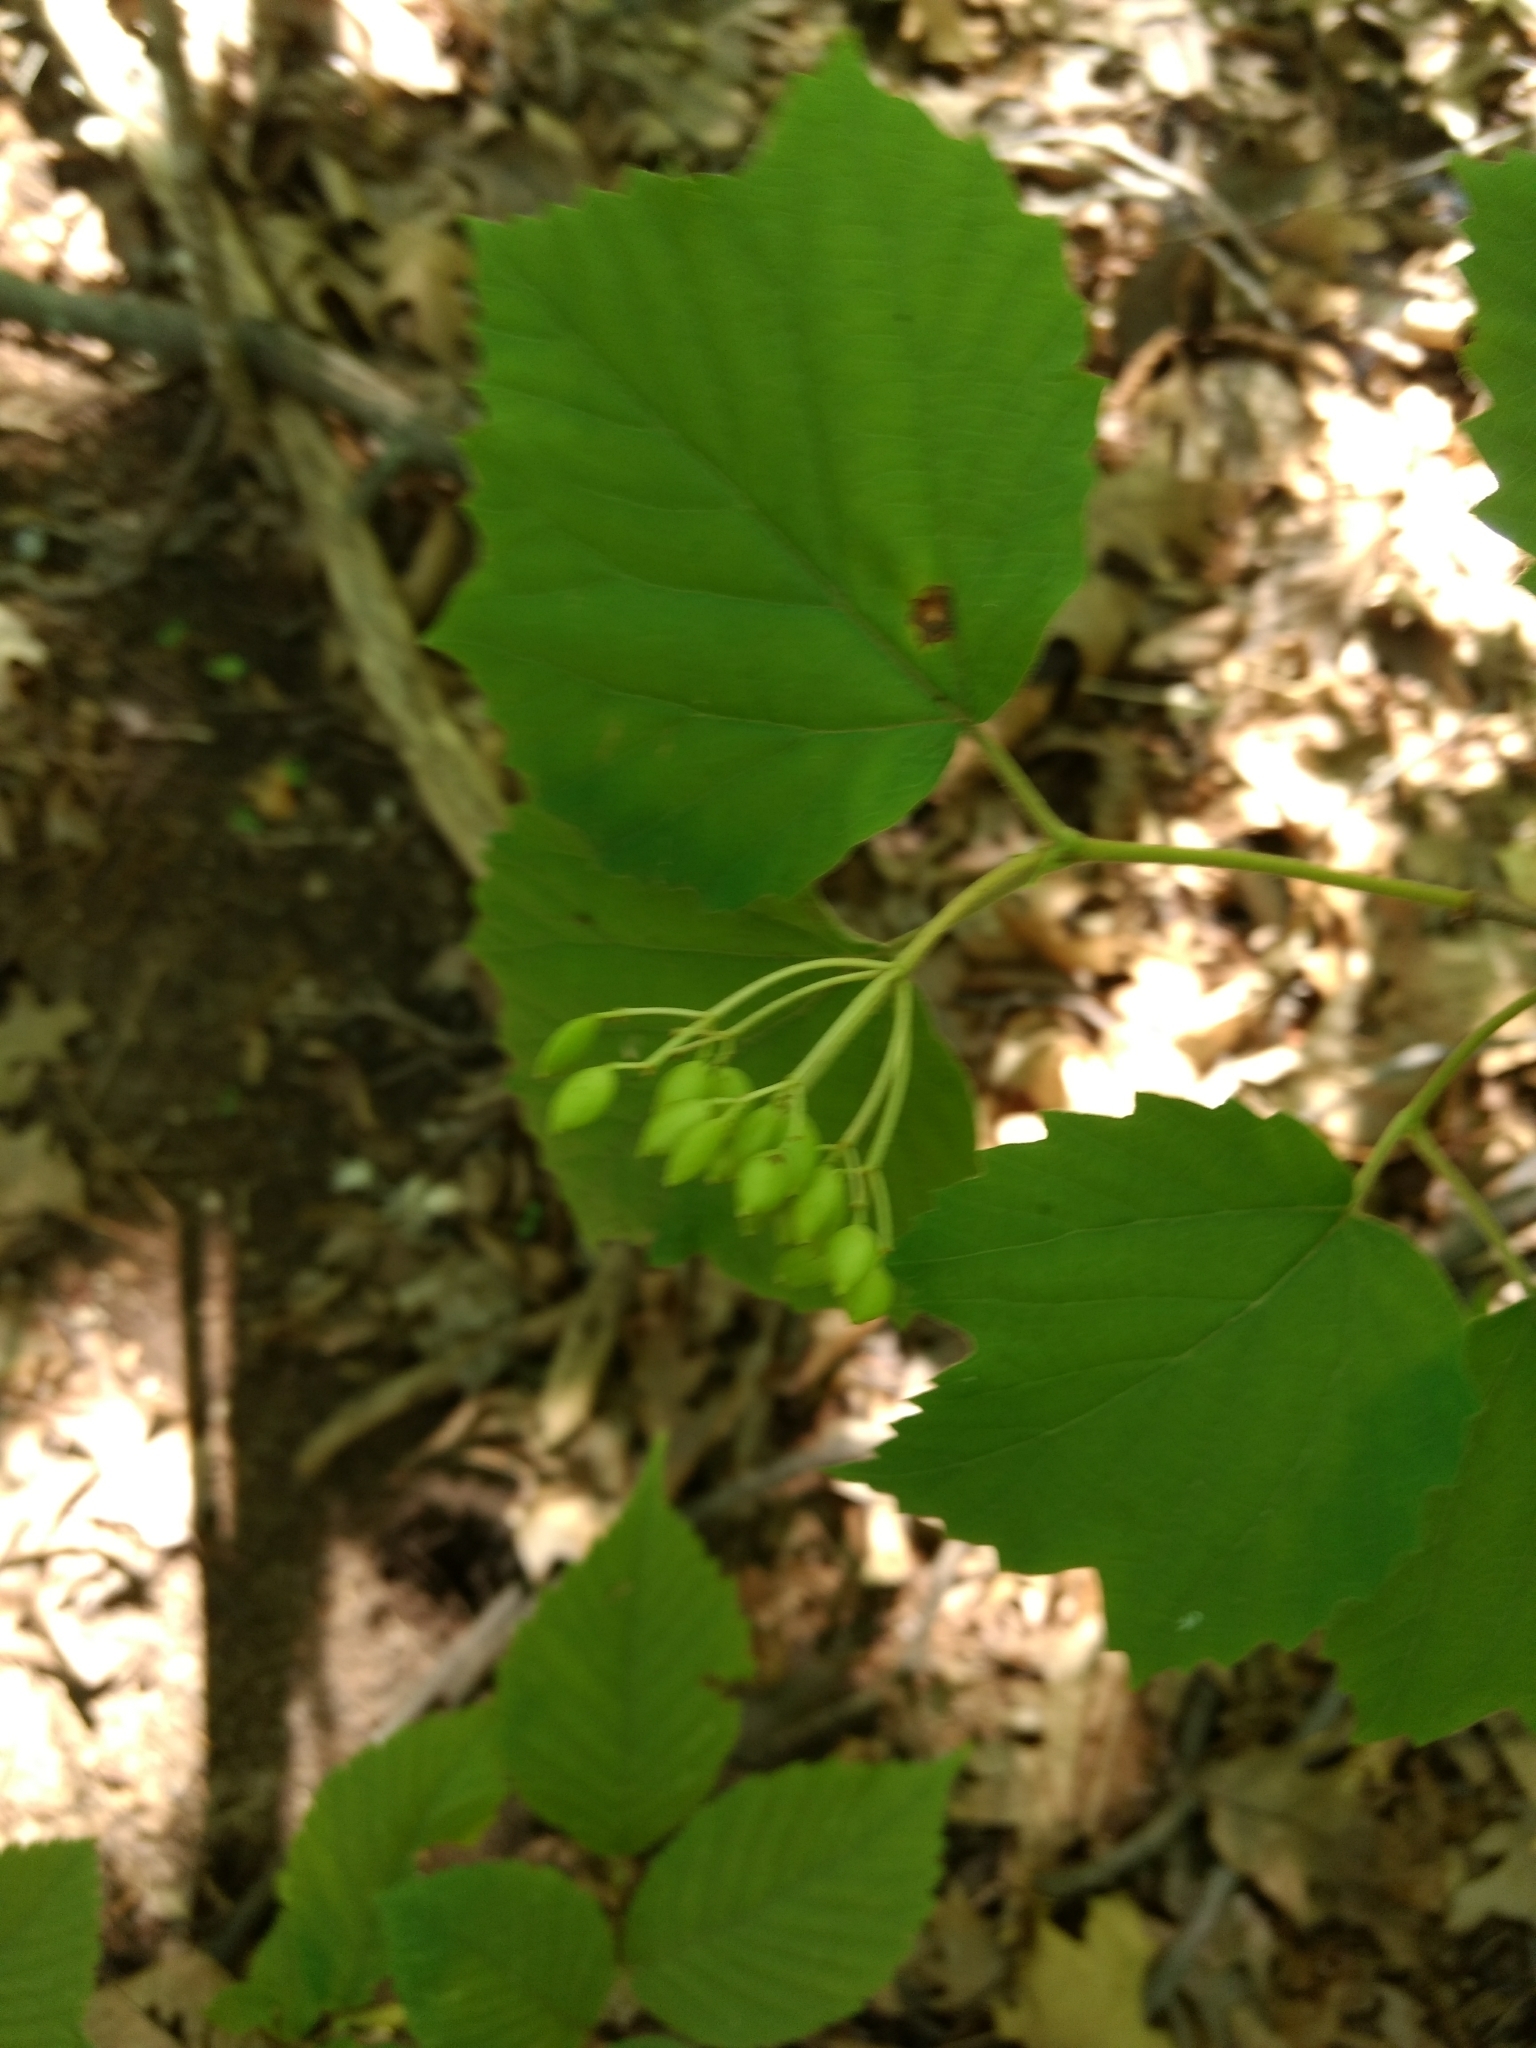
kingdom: Plantae
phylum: Tracheophyta
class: Magnoliopsida
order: Dipsacales
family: Viburnaceae
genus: Viburnum
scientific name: Viburnum acerifolium
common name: Dockmackie
